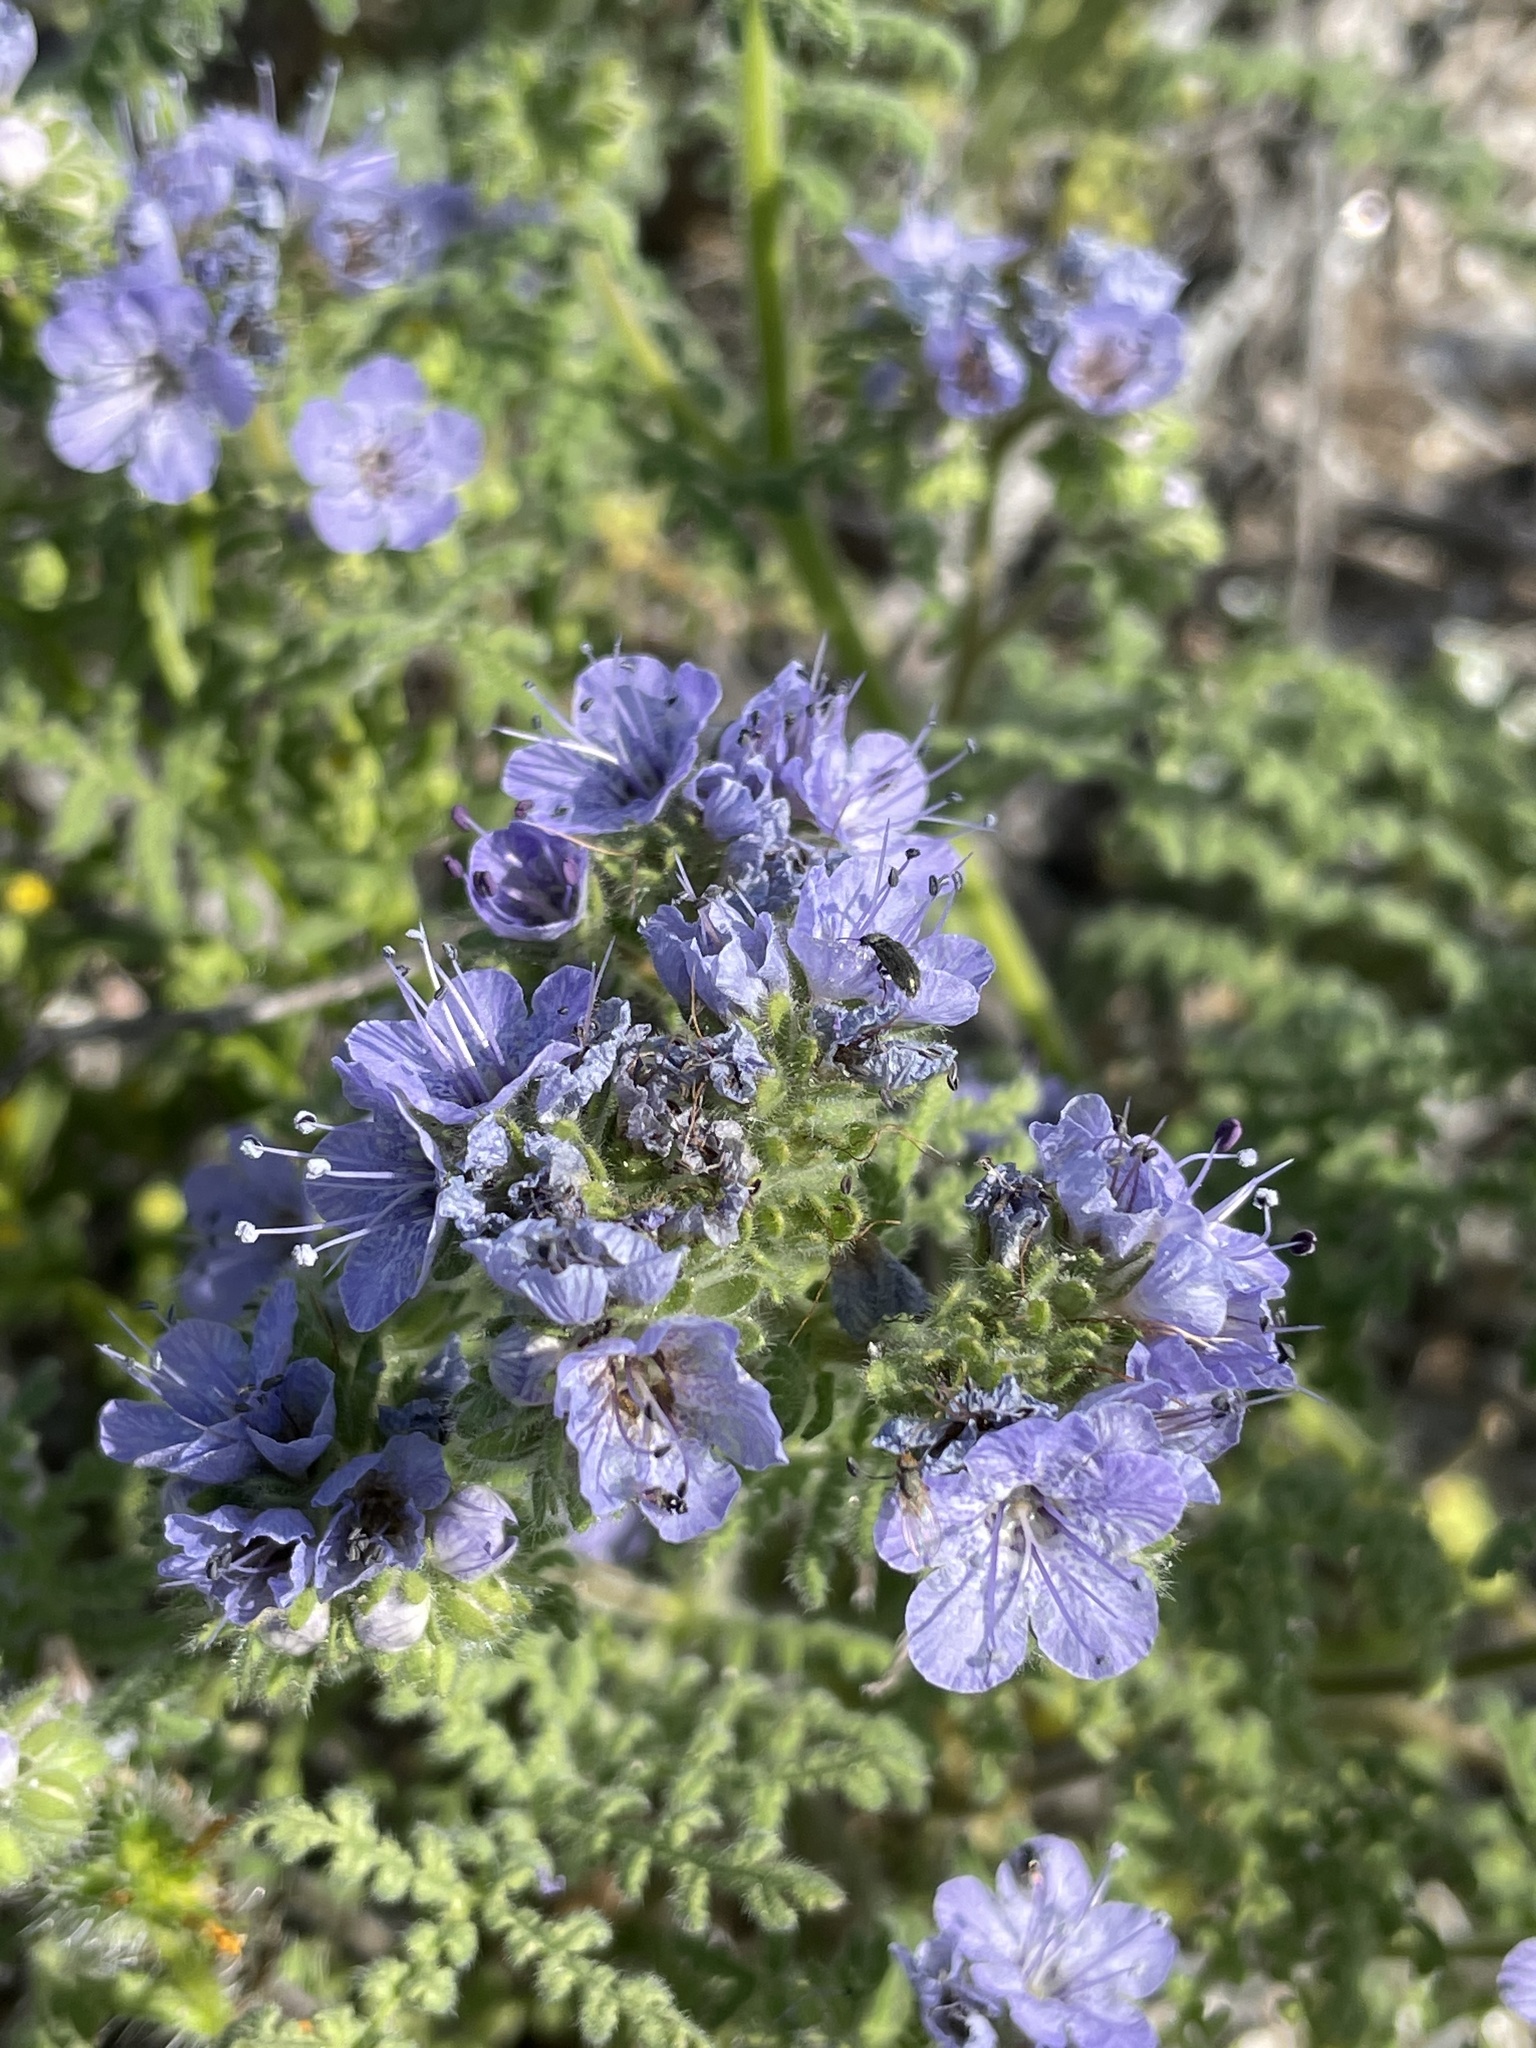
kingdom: Plantae
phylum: Tracheophyta
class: Magnoliopsida
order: Boraginales
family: Hydrophyllaceae
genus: Phacelia
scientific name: Phacelia floribunda
